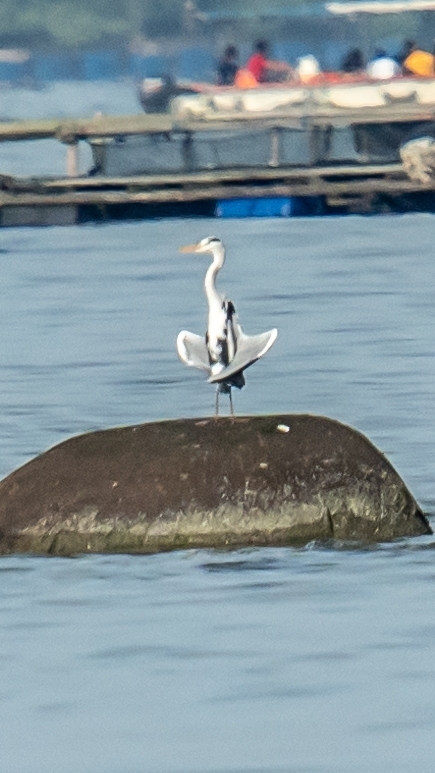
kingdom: Animalia
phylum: Chordata
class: Aves
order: Pelecaniformes
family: Ardeidae
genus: Ardea
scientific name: Ardea cinerea
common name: Grey heron
